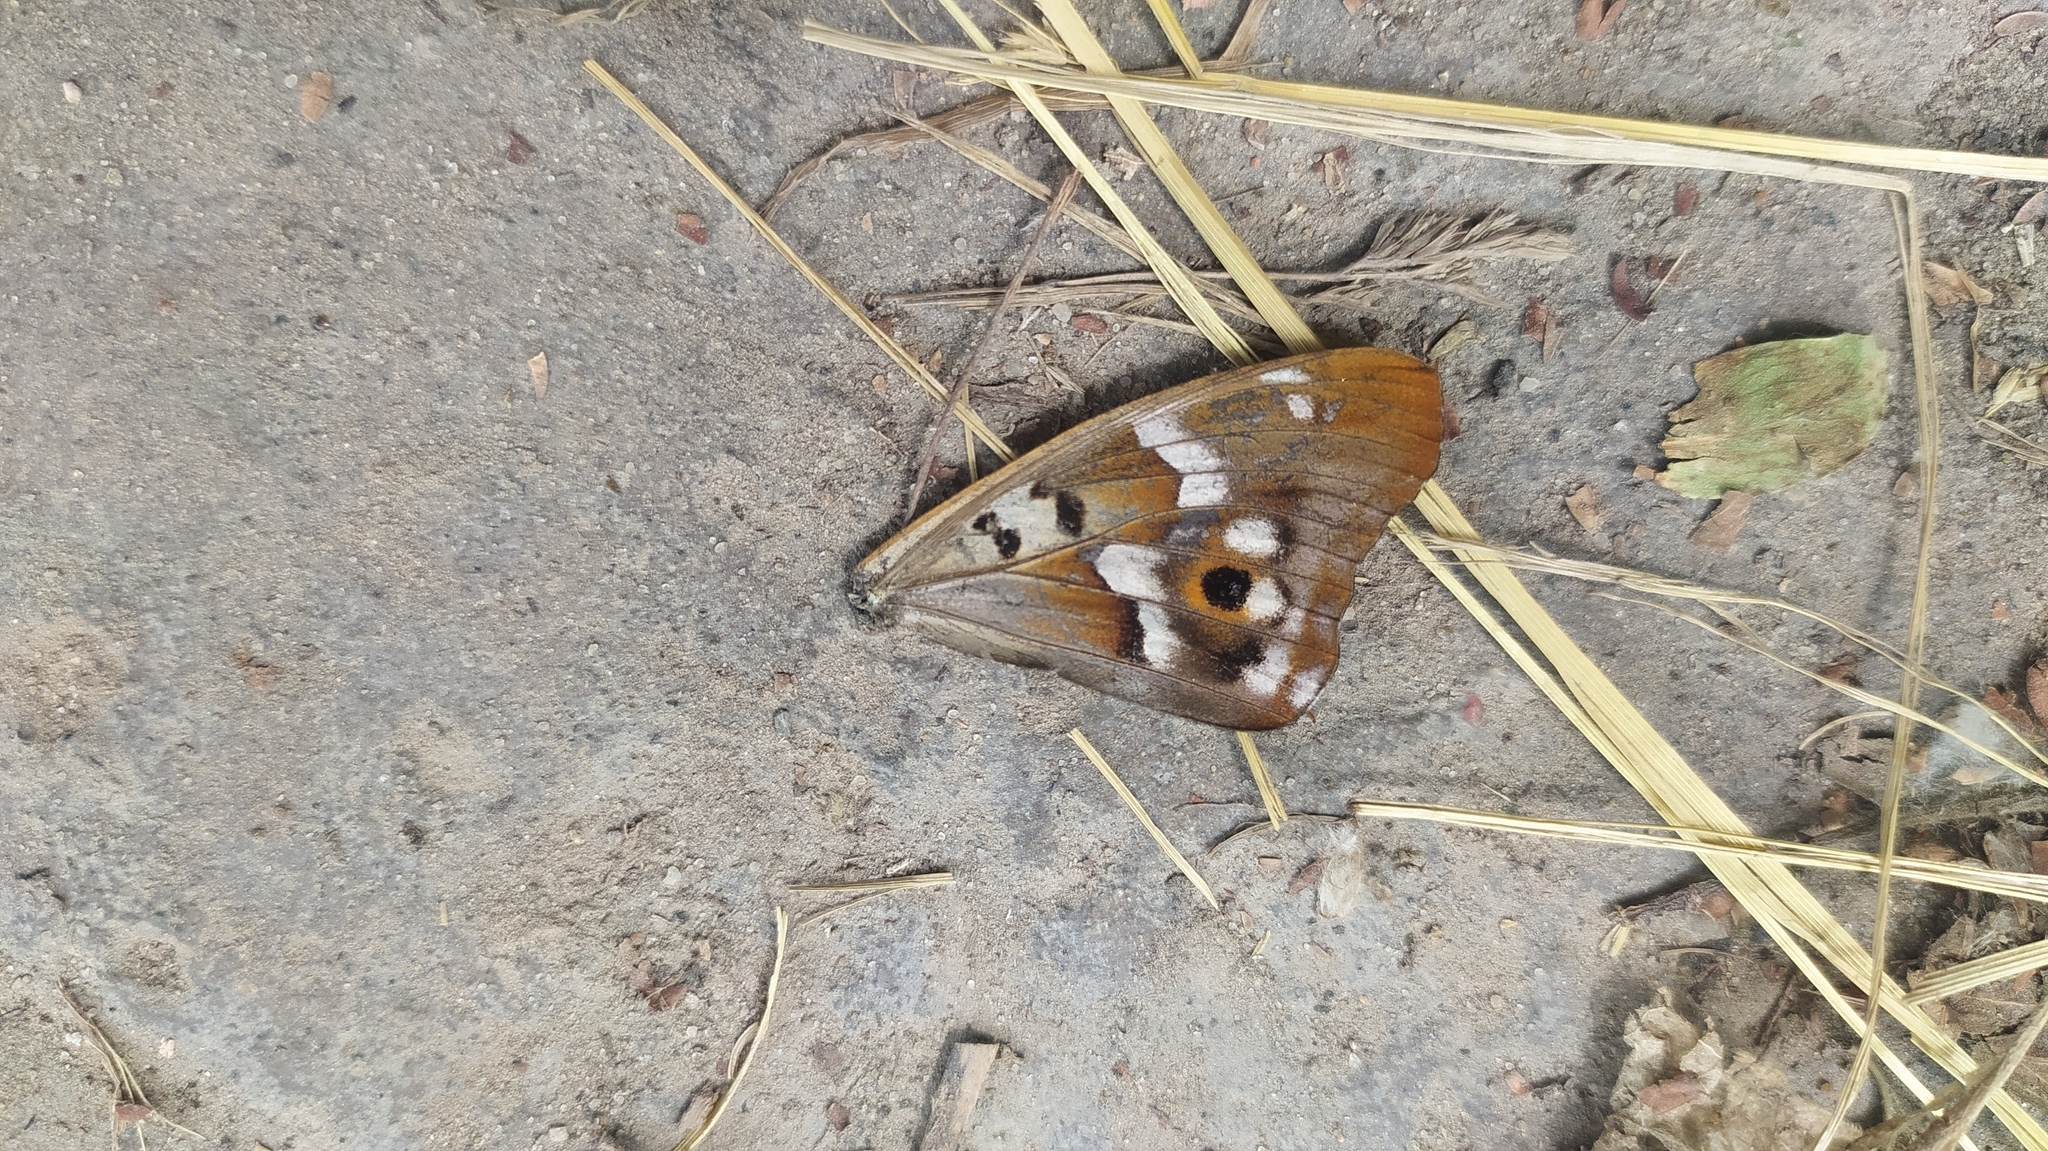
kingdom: Animalia
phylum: Arthropoda
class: Insecta
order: Lepidoptera
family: Nymphalidae
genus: Apatura
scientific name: Apatura ilia
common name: Lesser purple emperor
